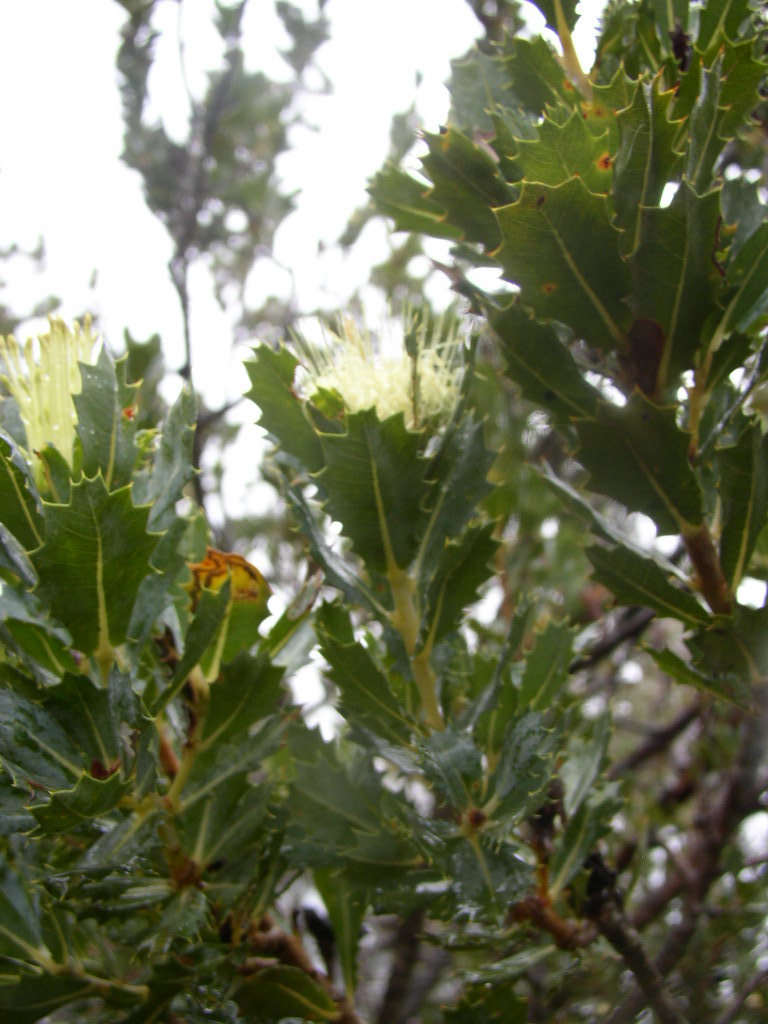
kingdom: Plantae
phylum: Tracheophyta
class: Magnoliopsida
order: Proteales
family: Proteaceae
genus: Banksia
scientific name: Banksia squarrosa
